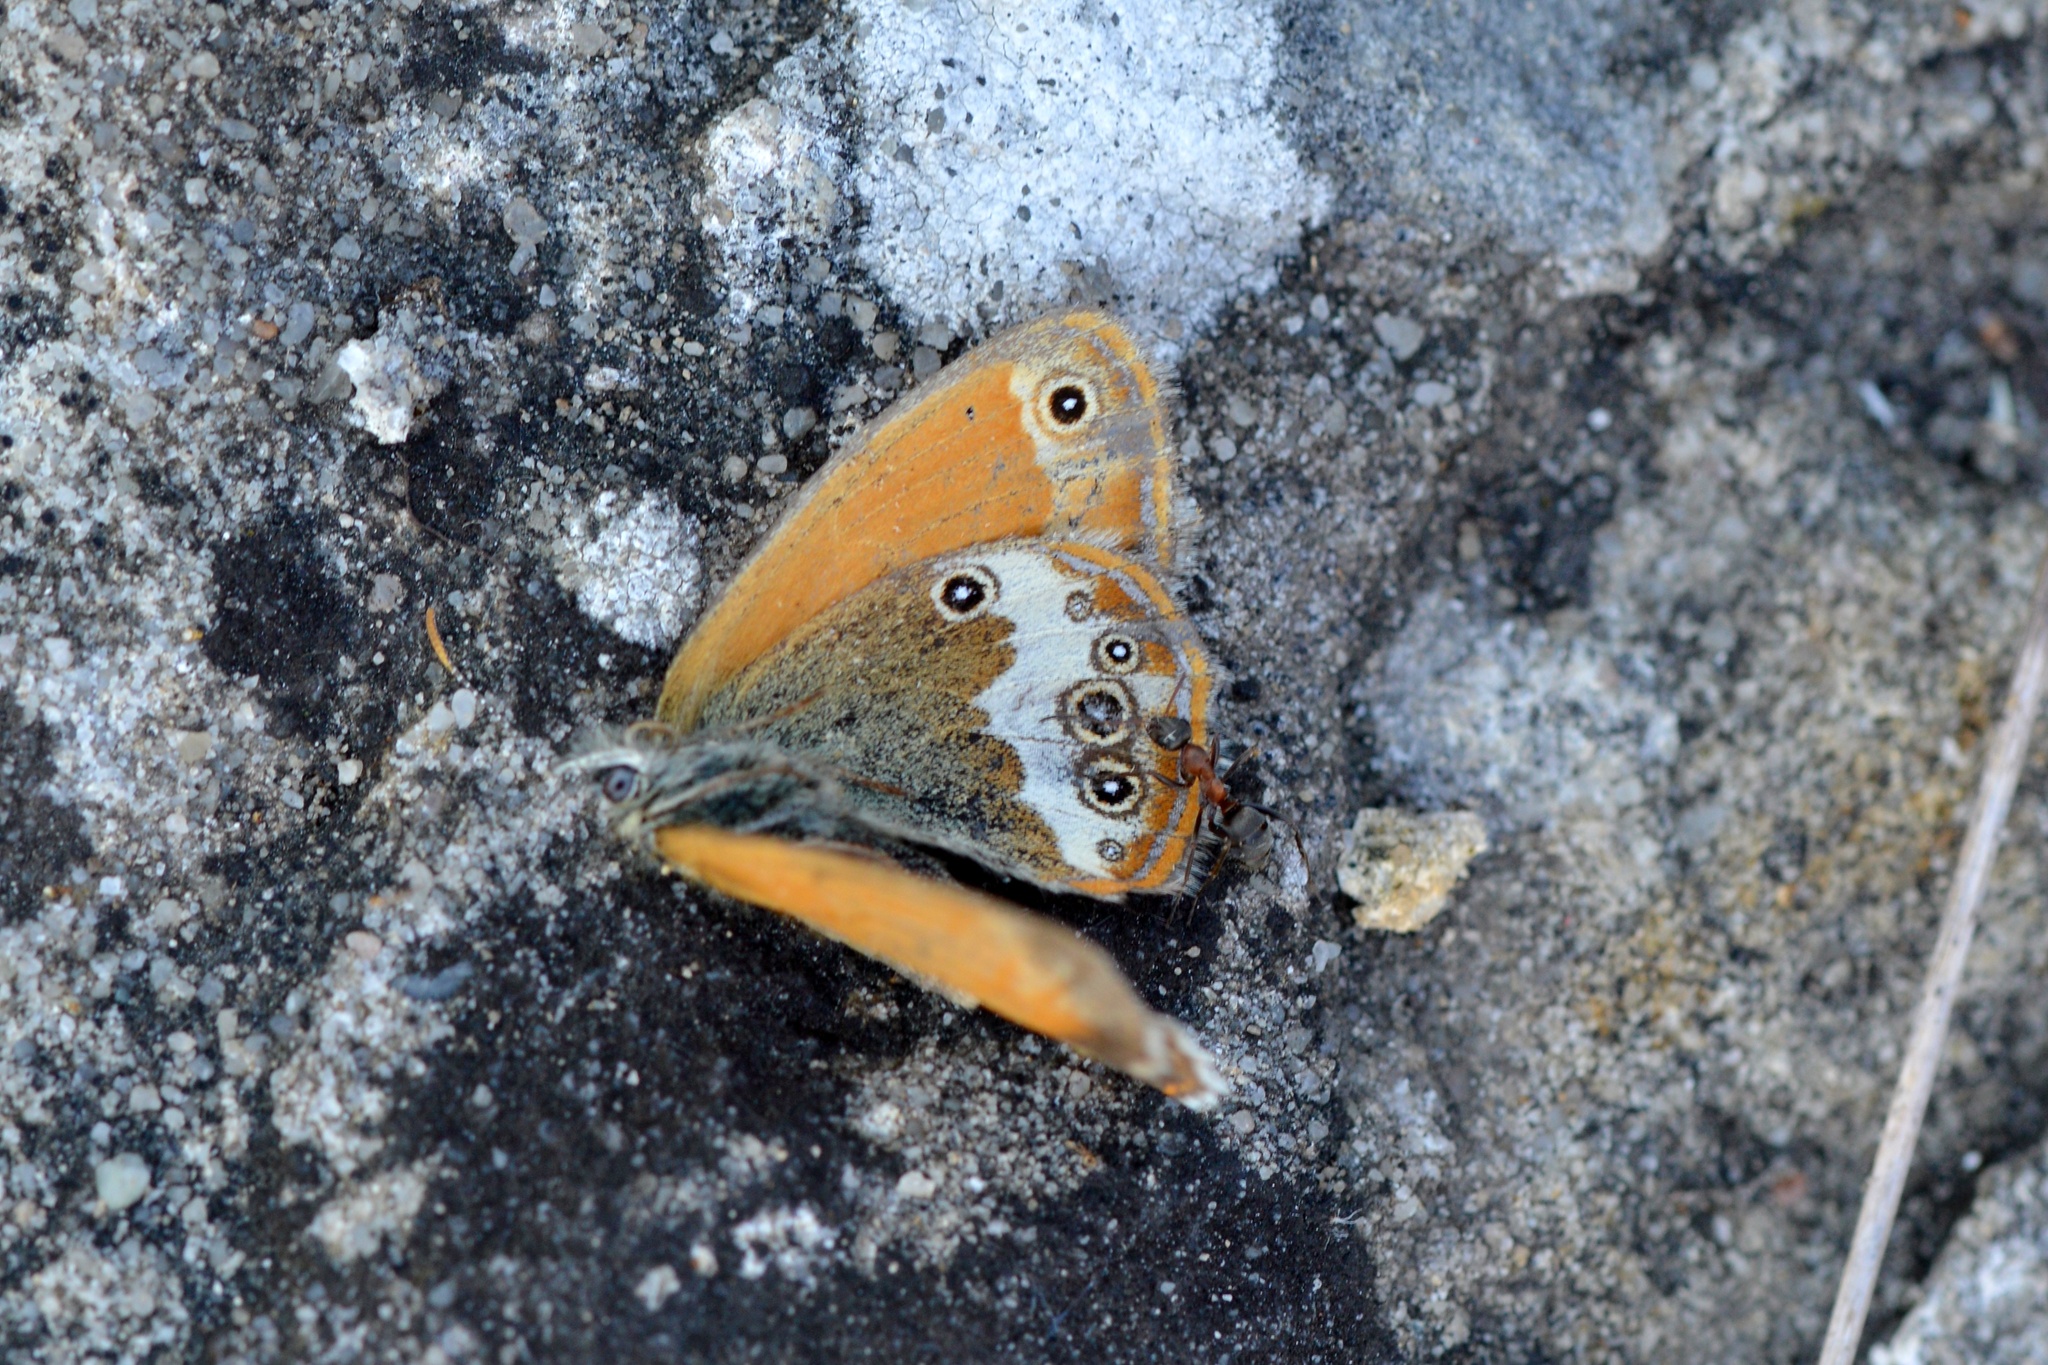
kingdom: Animalia
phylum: Arthropoda
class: Insecta
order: Lepidoptera
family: Nymphalidae
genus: Coenonympha
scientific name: Coenonympha arcania
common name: Pearly heath
